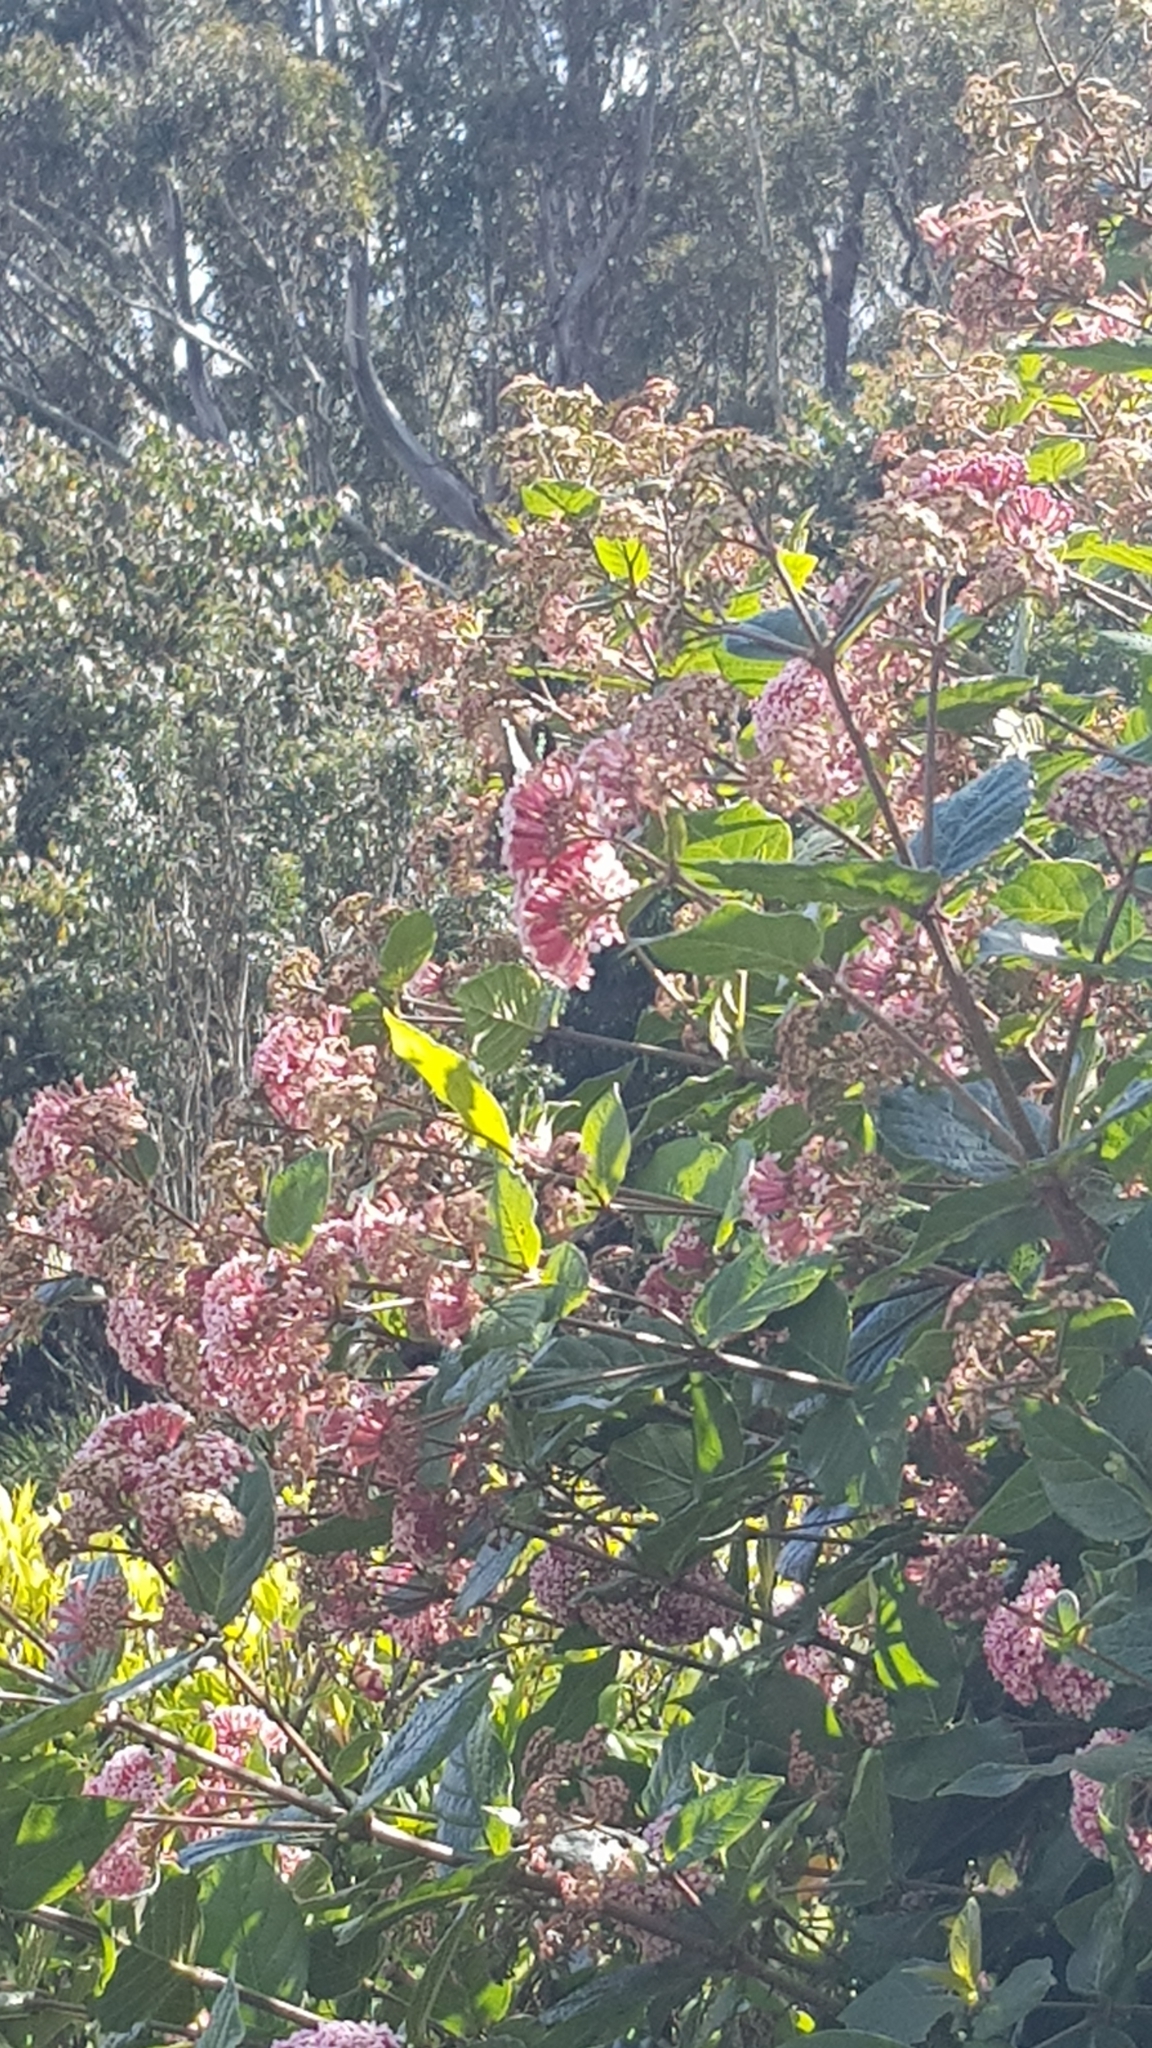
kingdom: Animalia
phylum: Arthropoda
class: Insecta
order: Lepidoptera
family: Papilionidae
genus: Graphium
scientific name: Graphium
